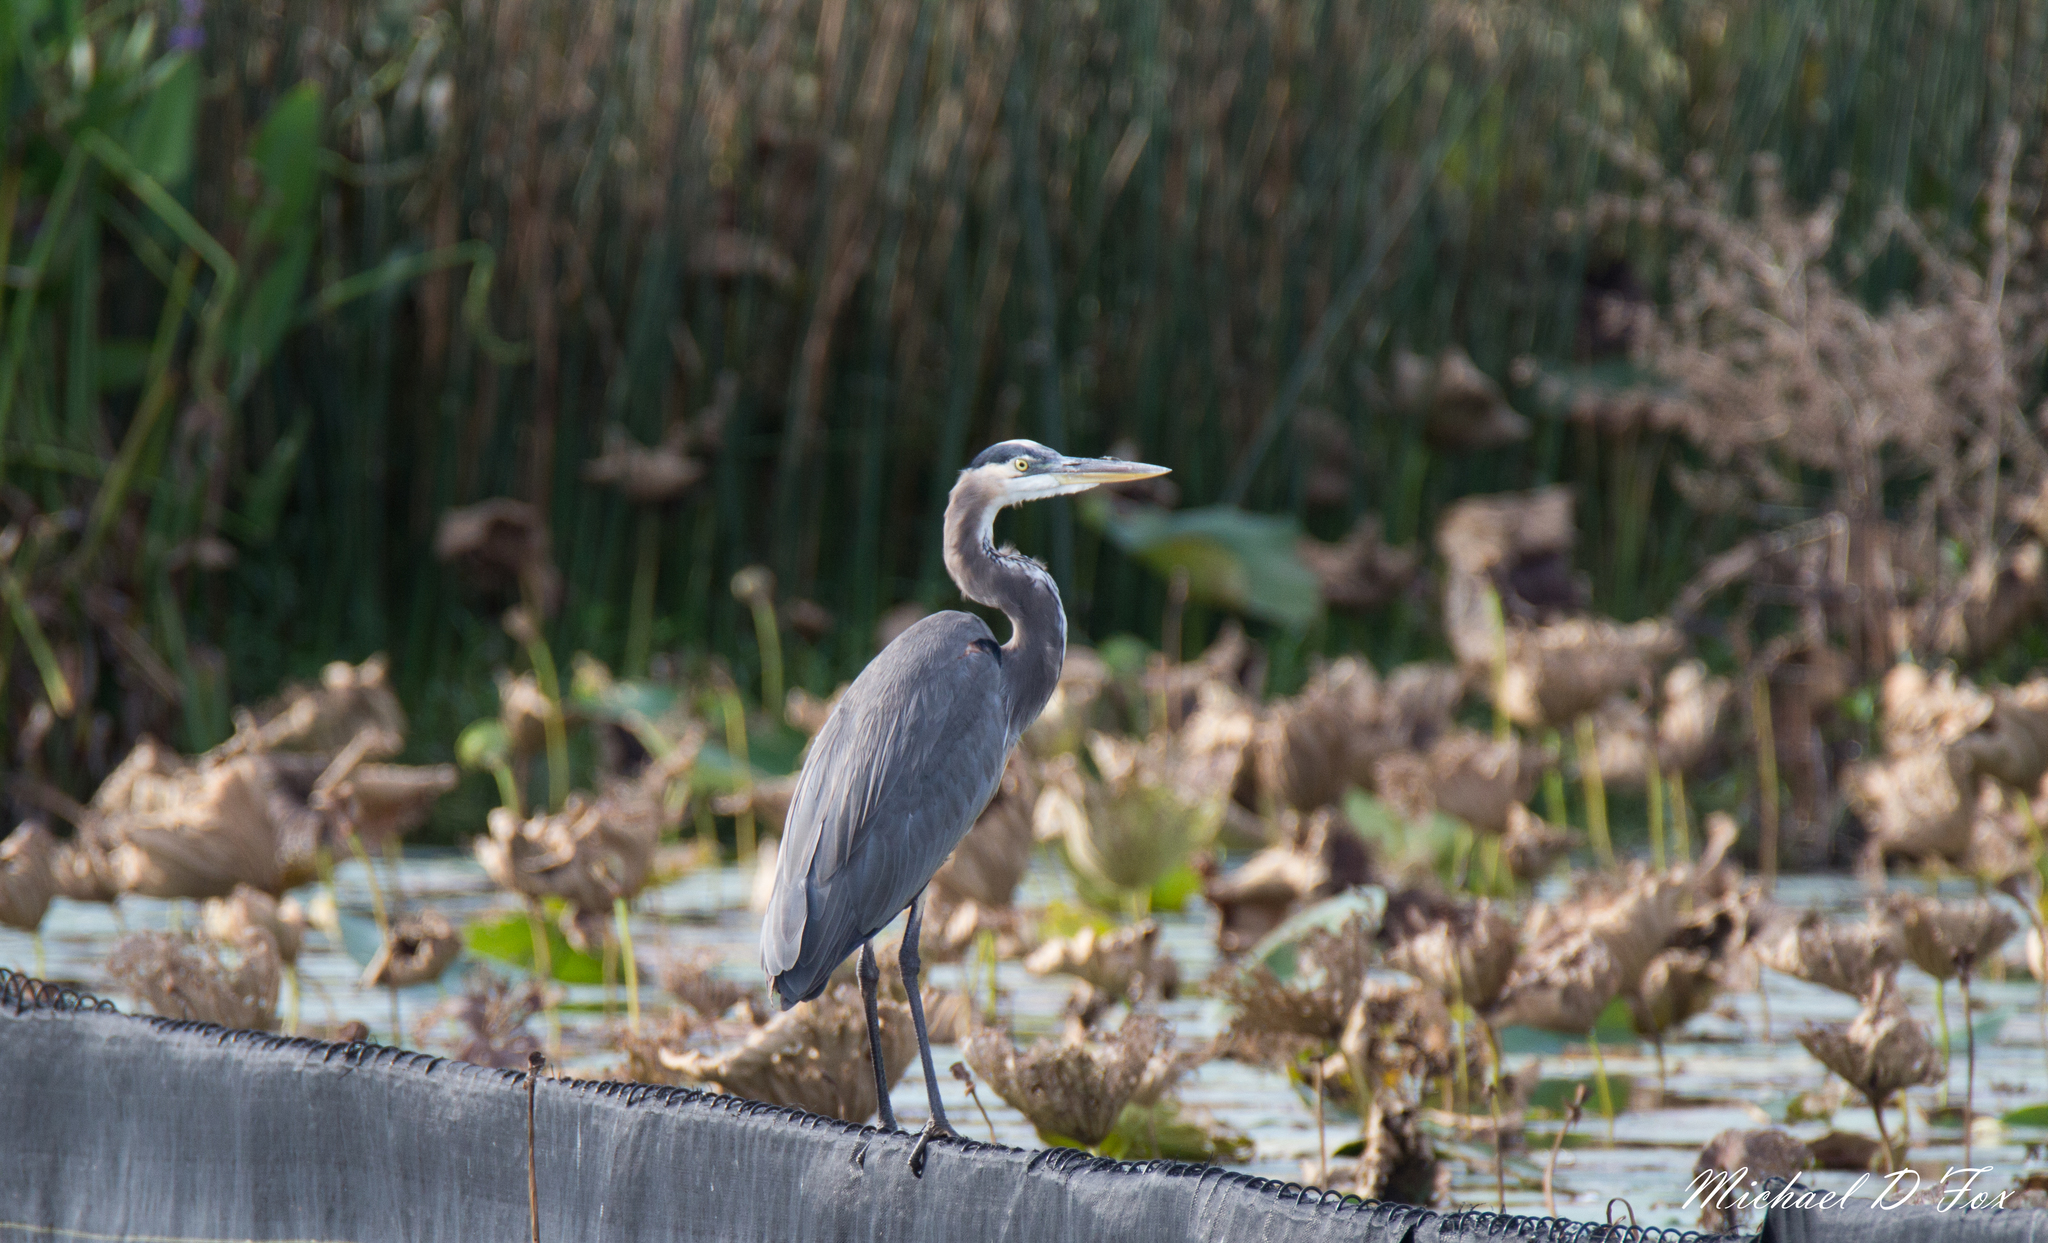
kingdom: Animalia
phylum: Chordata
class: Aves
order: Pelecaniformes
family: Ardeidae
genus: Ardea
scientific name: Ardea herodias
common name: Great blue heron
